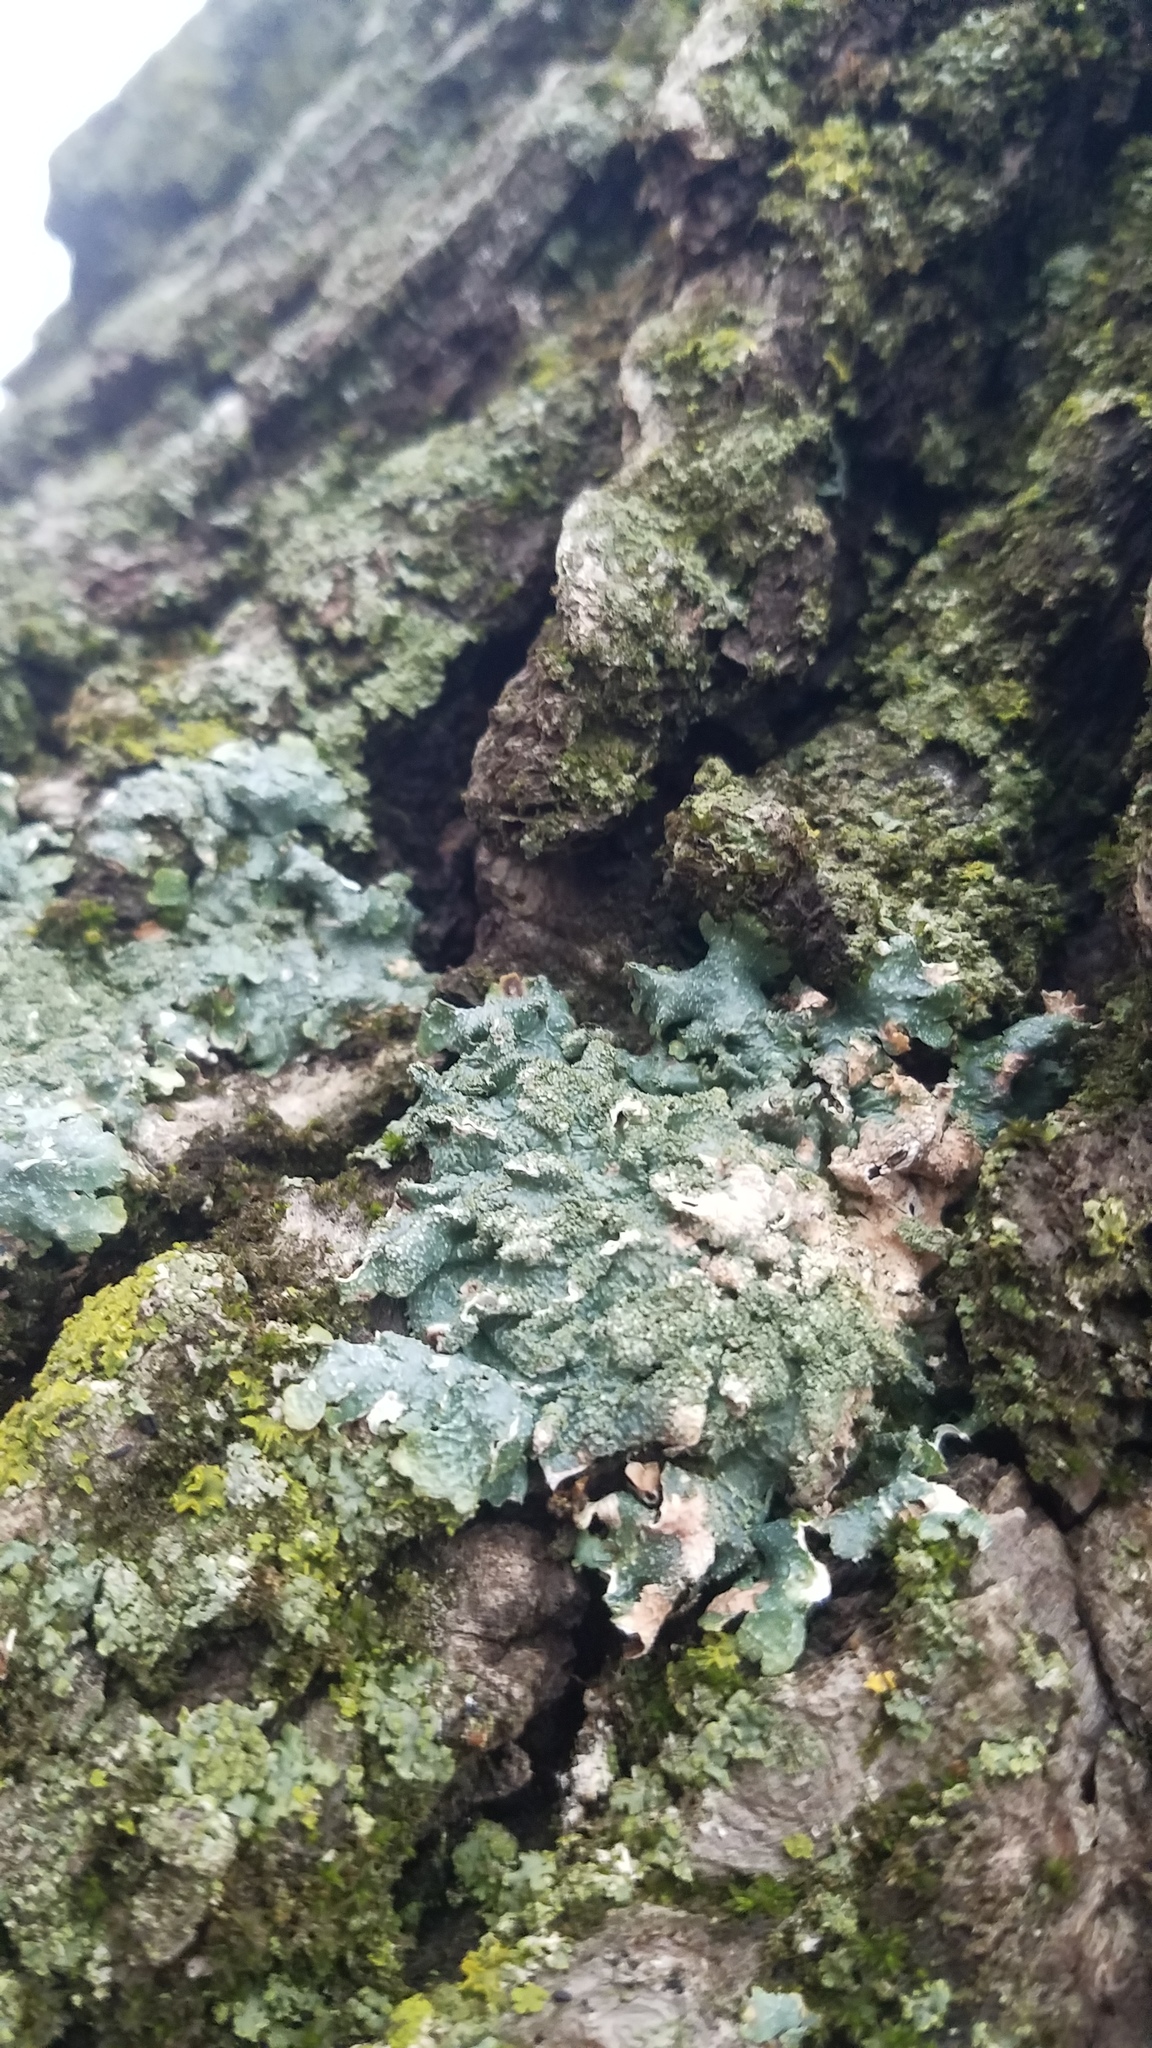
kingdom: Fungi
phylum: Ascomycota
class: Lecanoromycetes
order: Lecanorales
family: Parmeliaceae
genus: Punctelia
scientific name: Punctelia rudecta
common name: Rough speckled shield lichen
